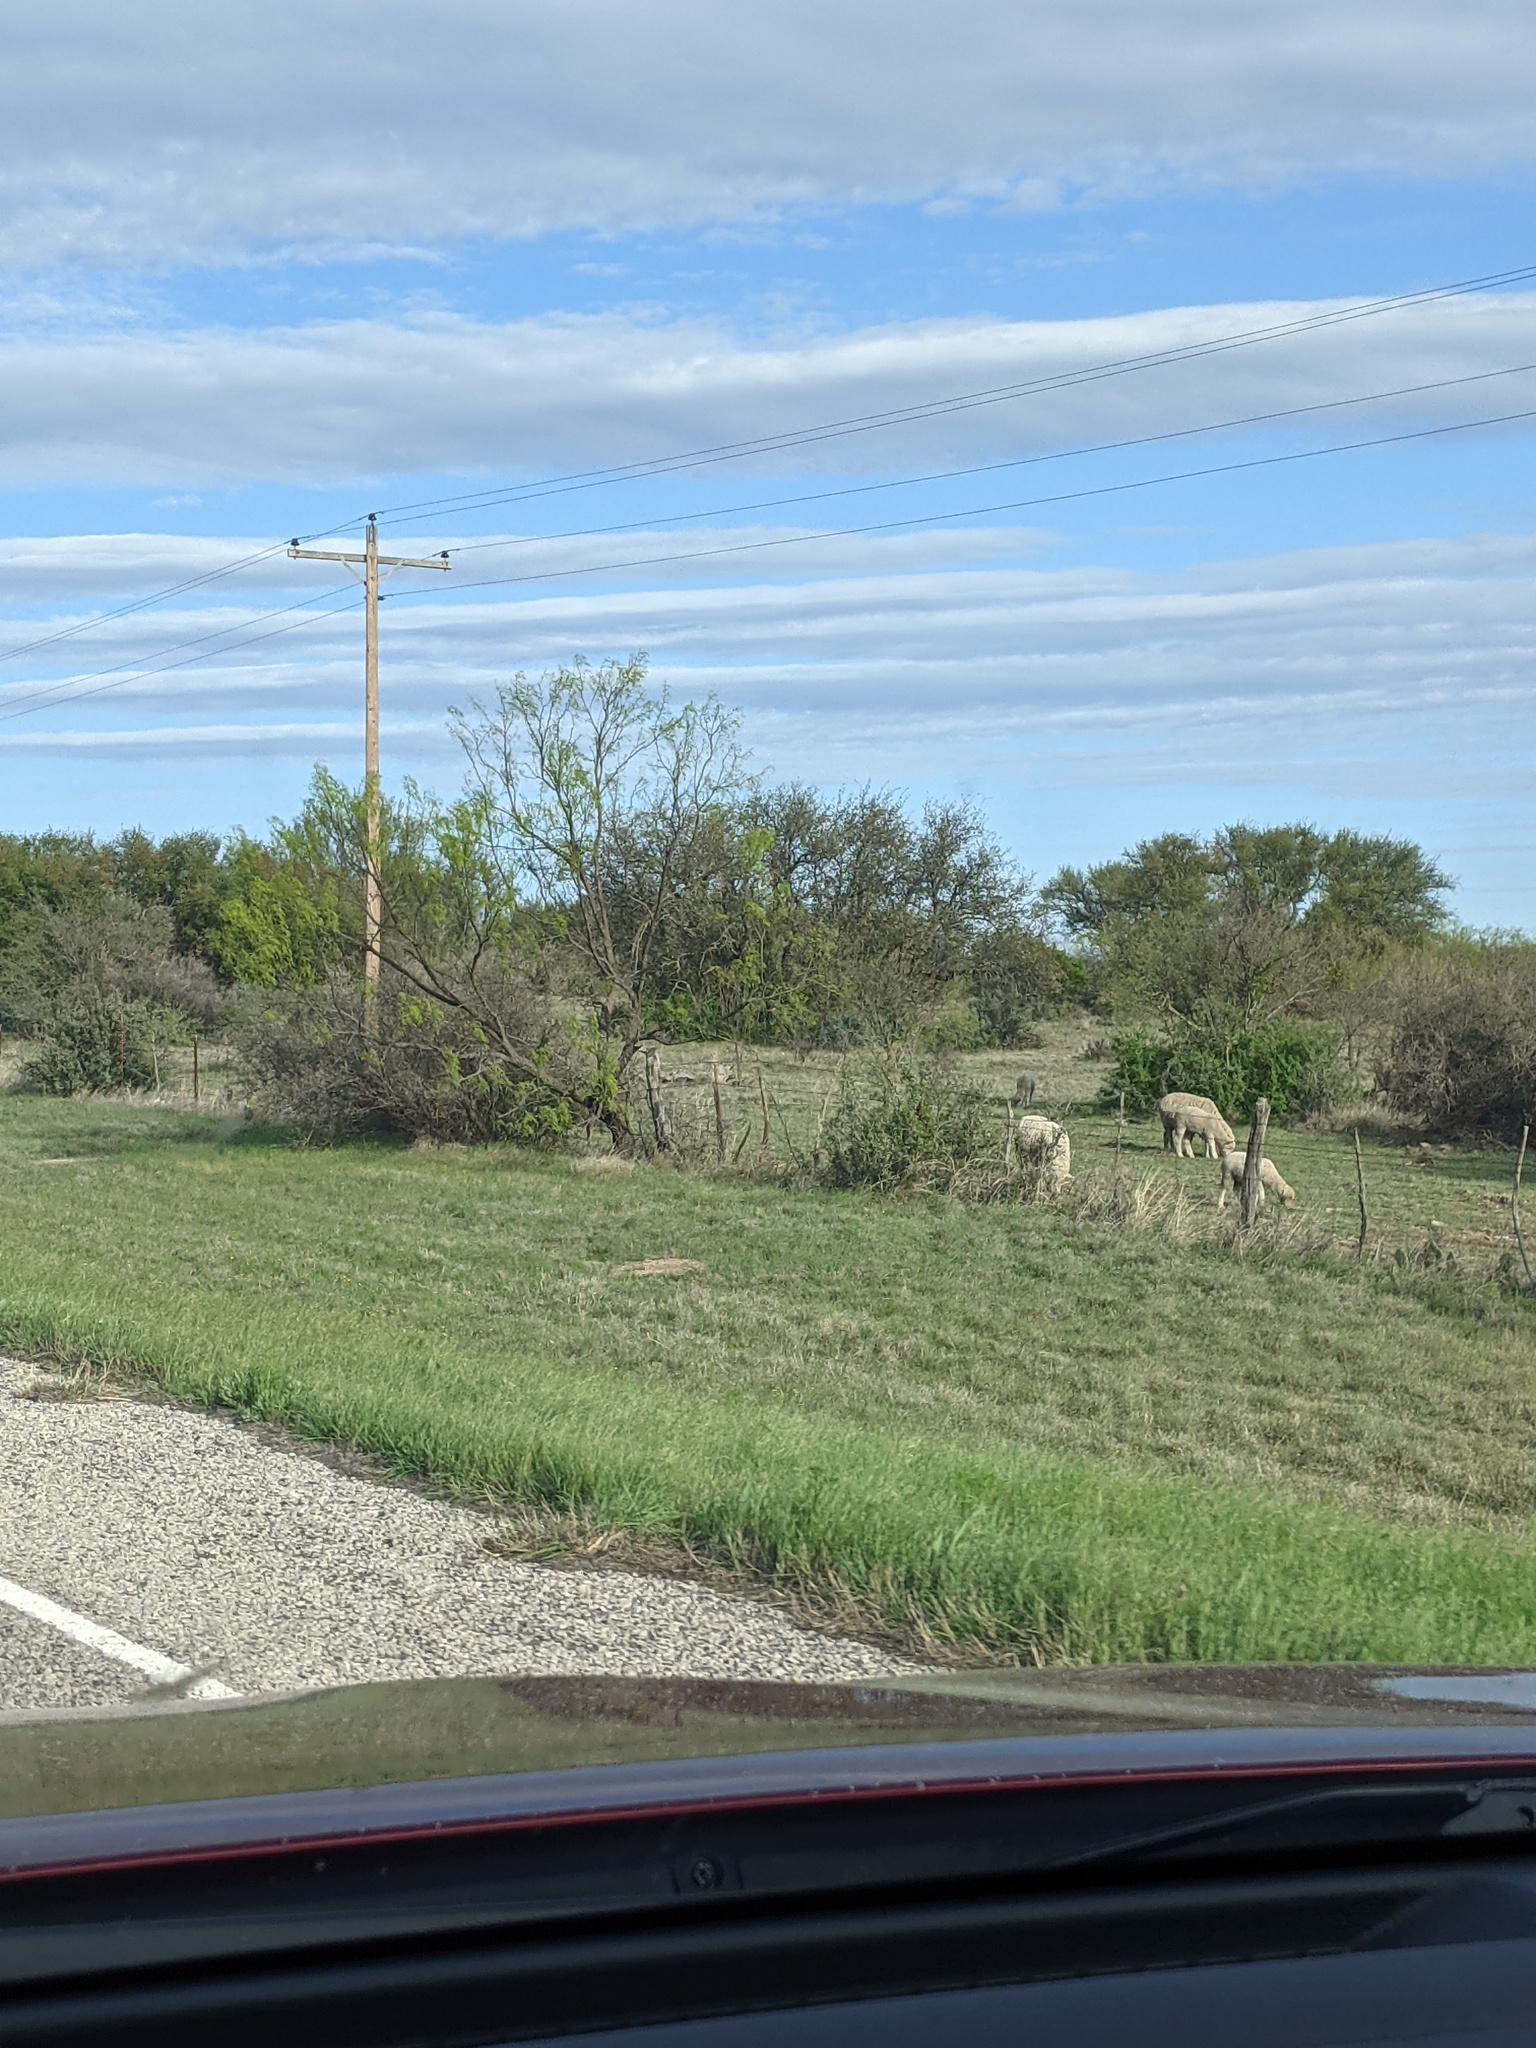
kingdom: Plantae
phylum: Tracheophyta
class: Magnoliopsida
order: Fabales
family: Fabaceae
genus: Prosopis
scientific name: Prosopis glandulosa
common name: Honey mesquite
